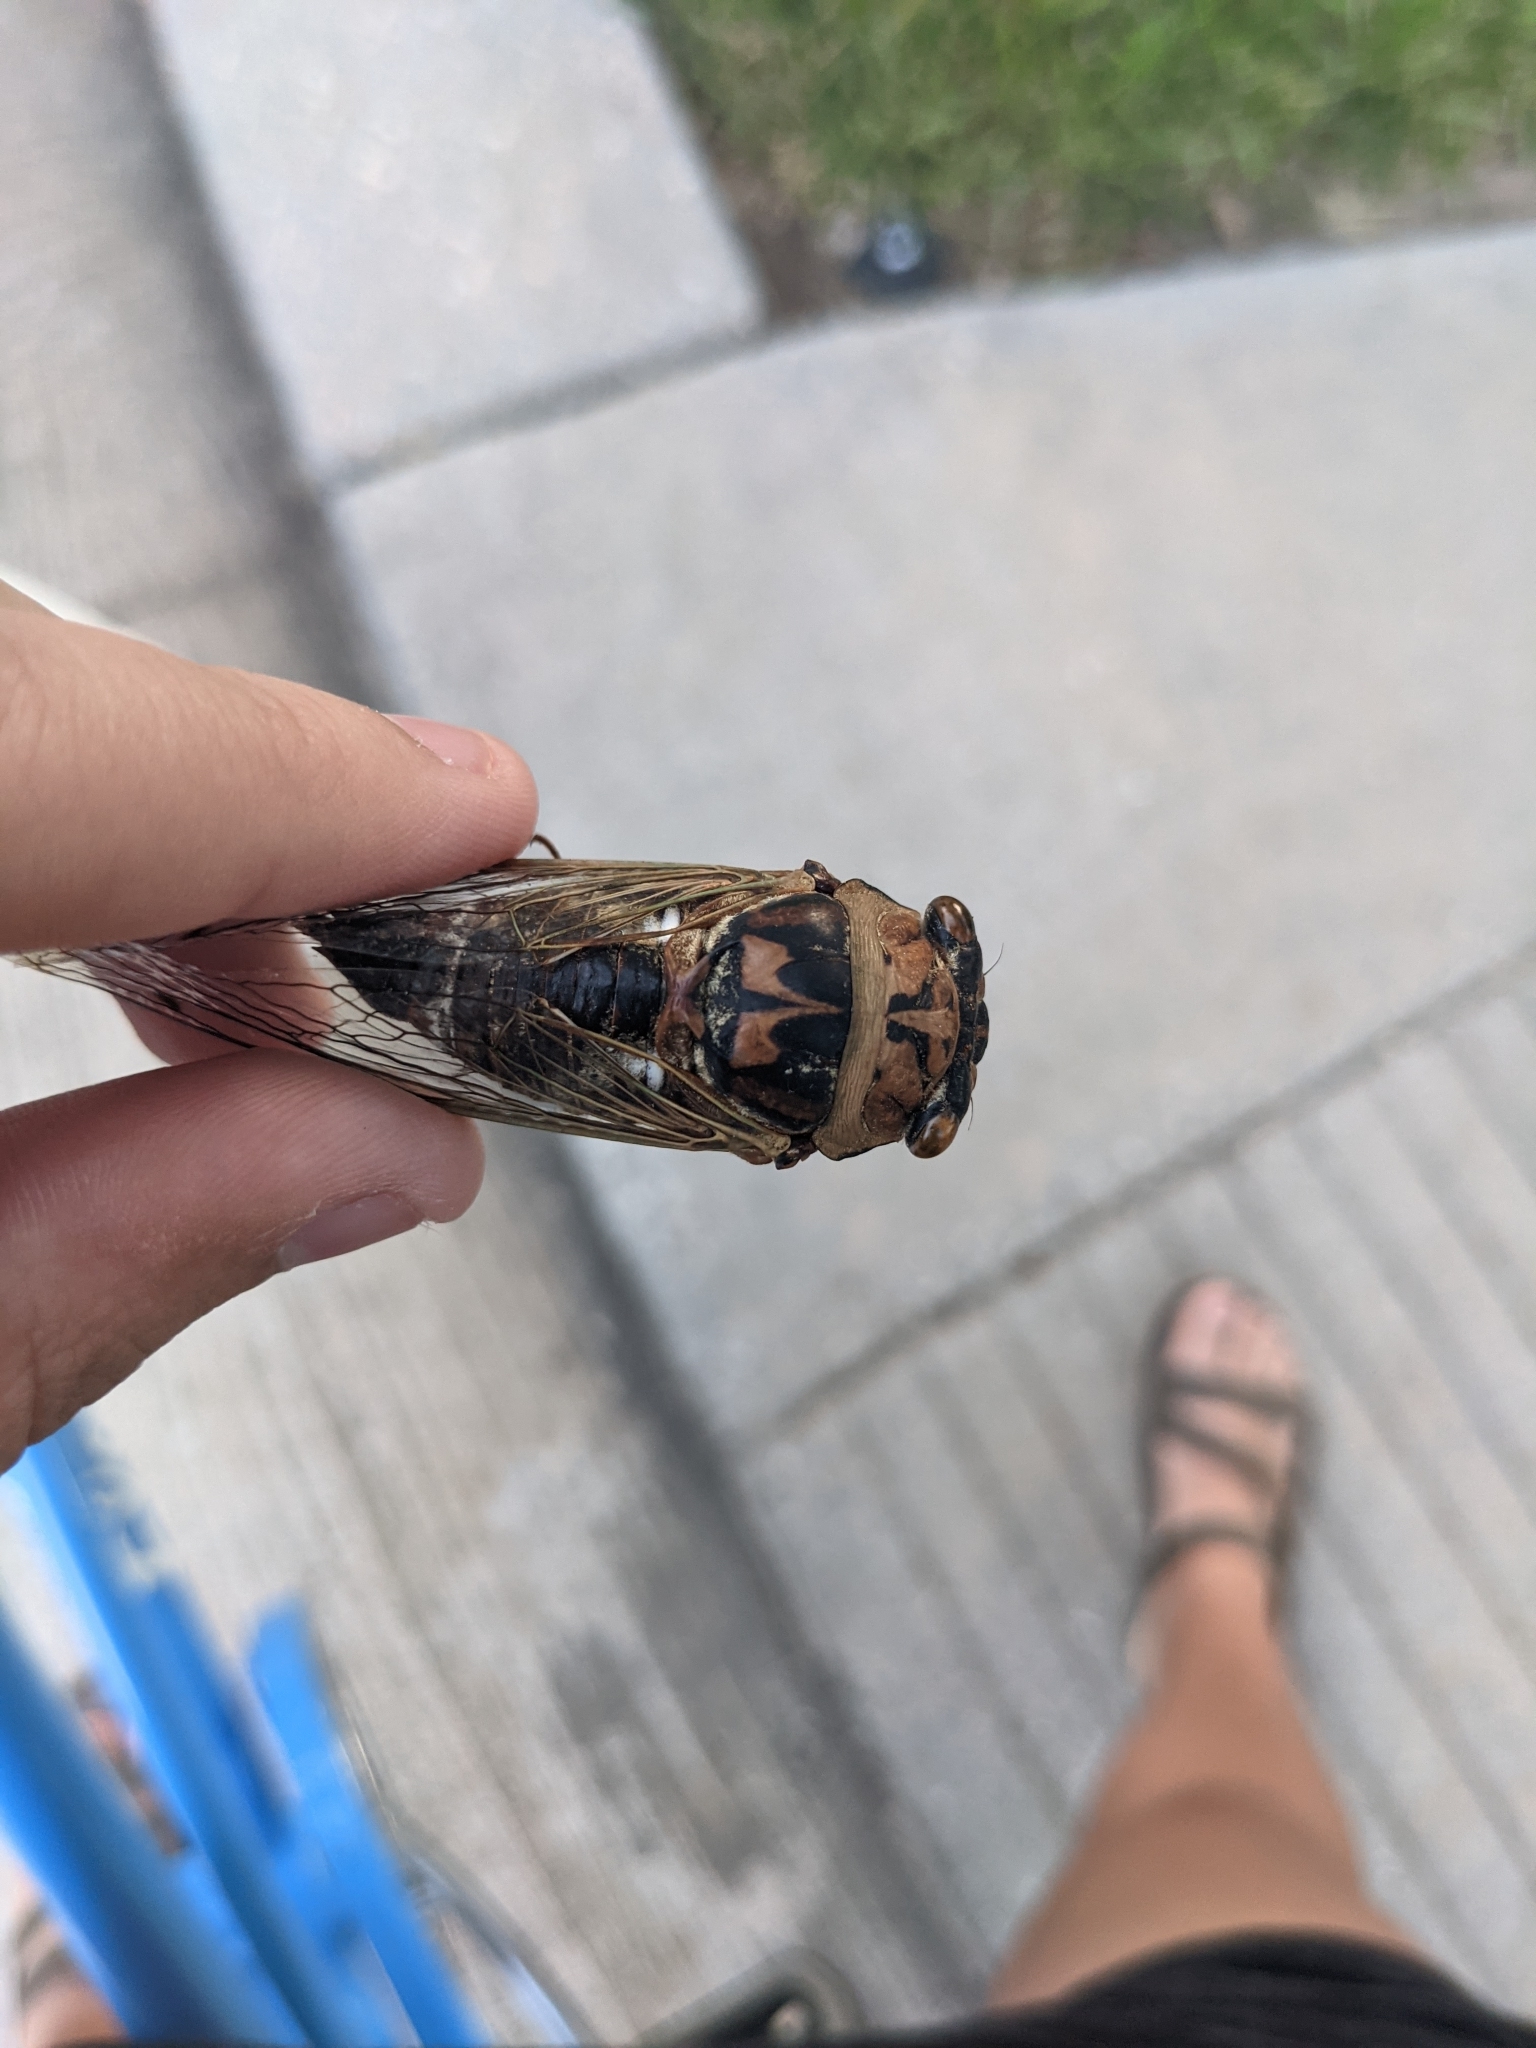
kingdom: Animalia
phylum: Arthropoda
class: Insecta
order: Hemiptera
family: Cicadidae
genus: Megatibicen
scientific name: Megatibicen resh
